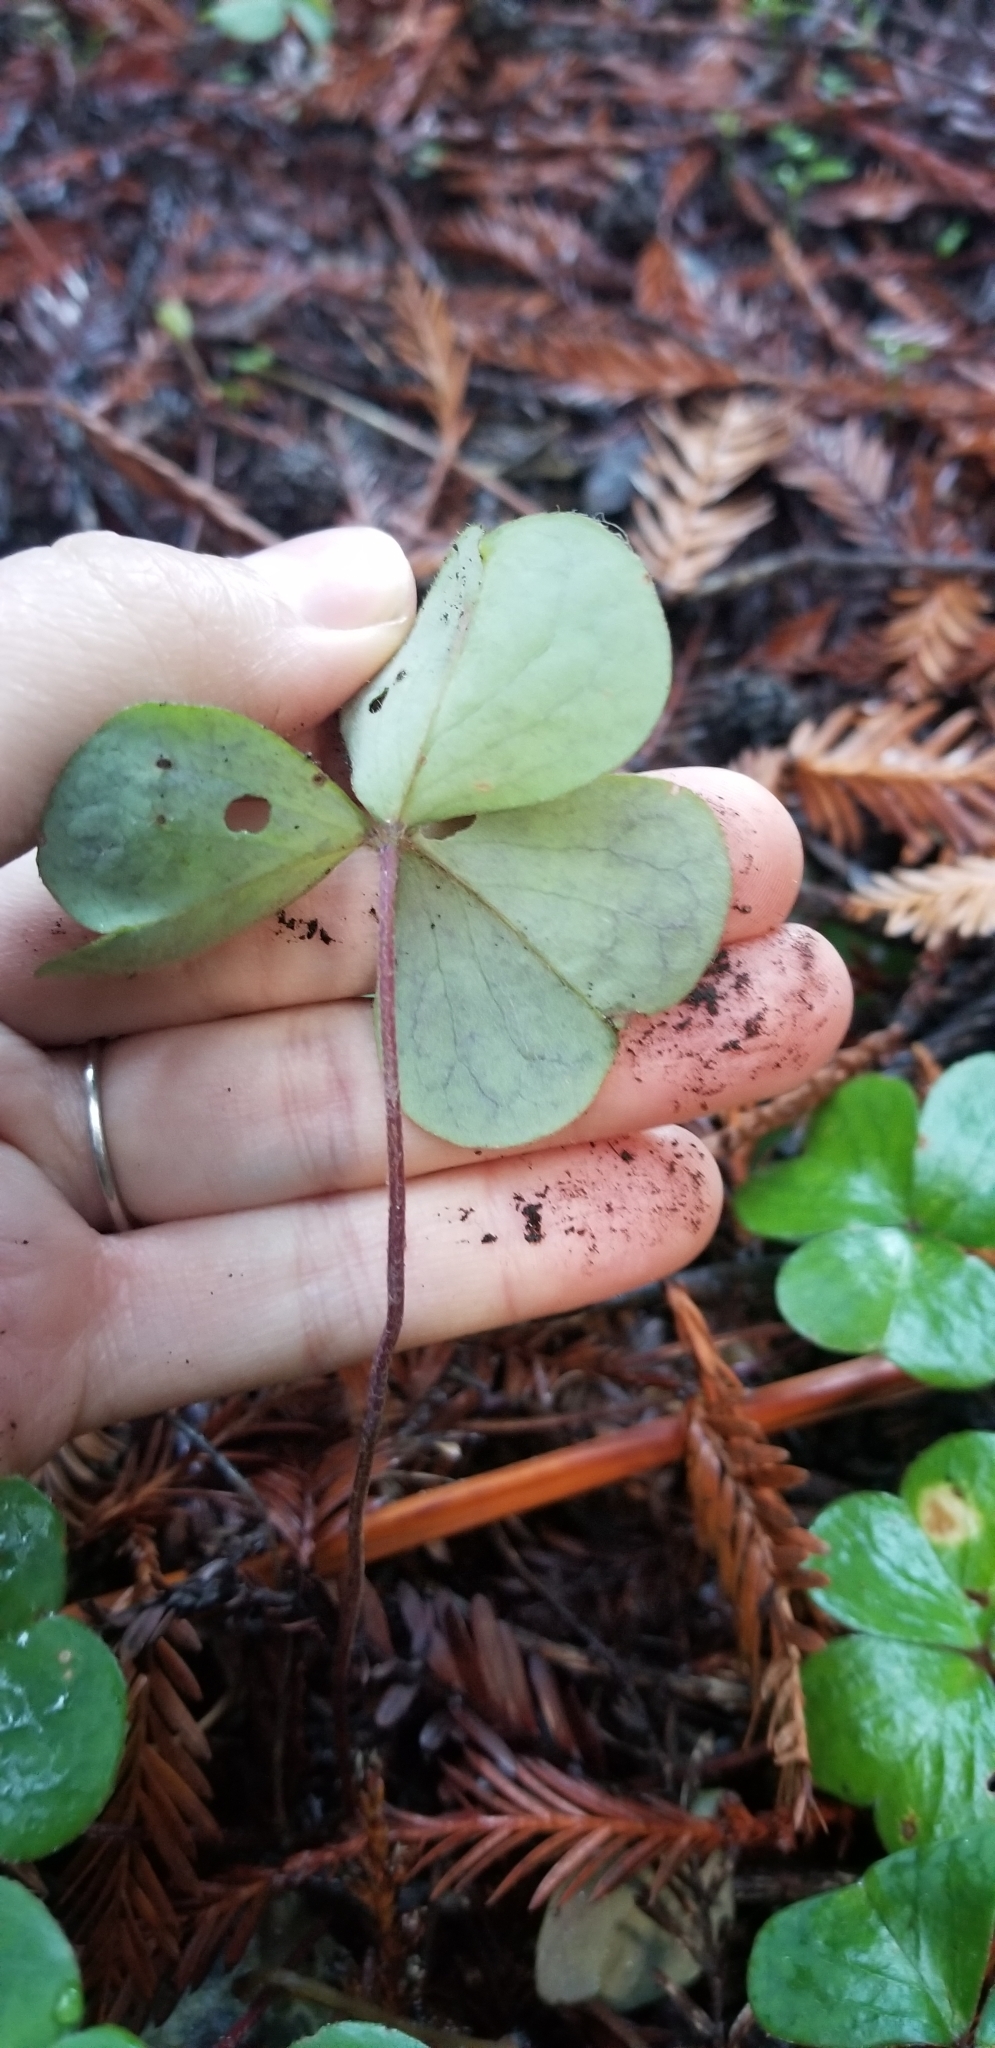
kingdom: Plantae
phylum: Tracheophyta
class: Magnoliopsida
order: Oxalidales
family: Oxalidaceae
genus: Oxalis
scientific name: Oxalis oregana
